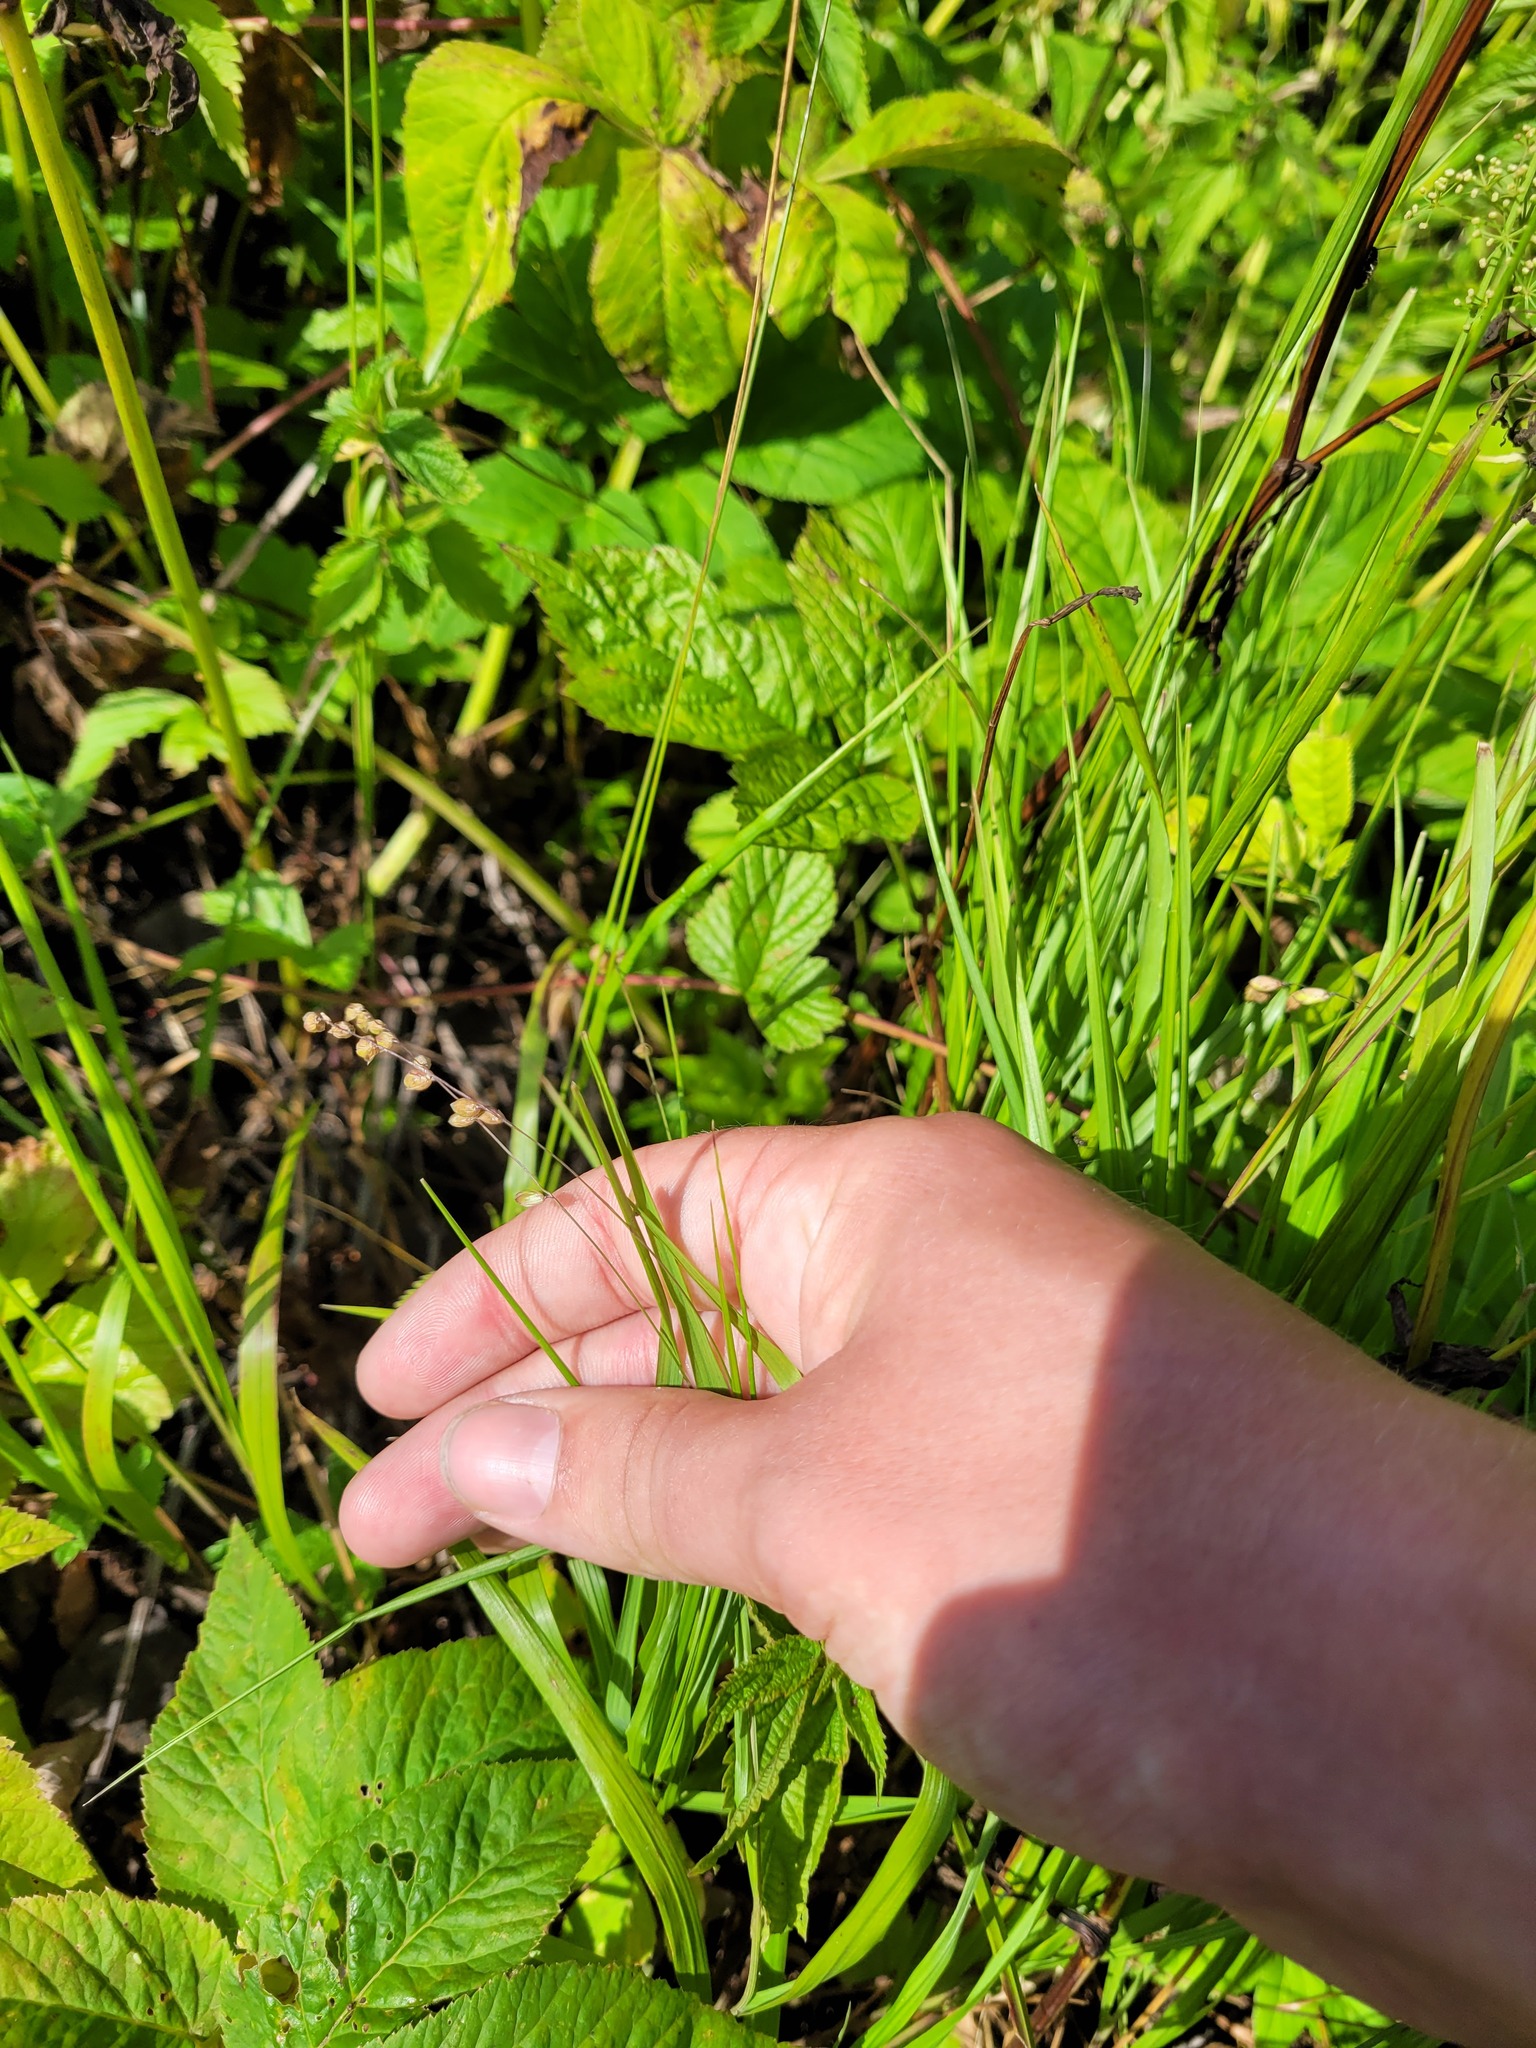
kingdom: Plantae
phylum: Tracheophyta
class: Liliopsida
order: Poales
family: Poaceae
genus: Melica
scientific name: Melica nutans
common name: Mountain melick
